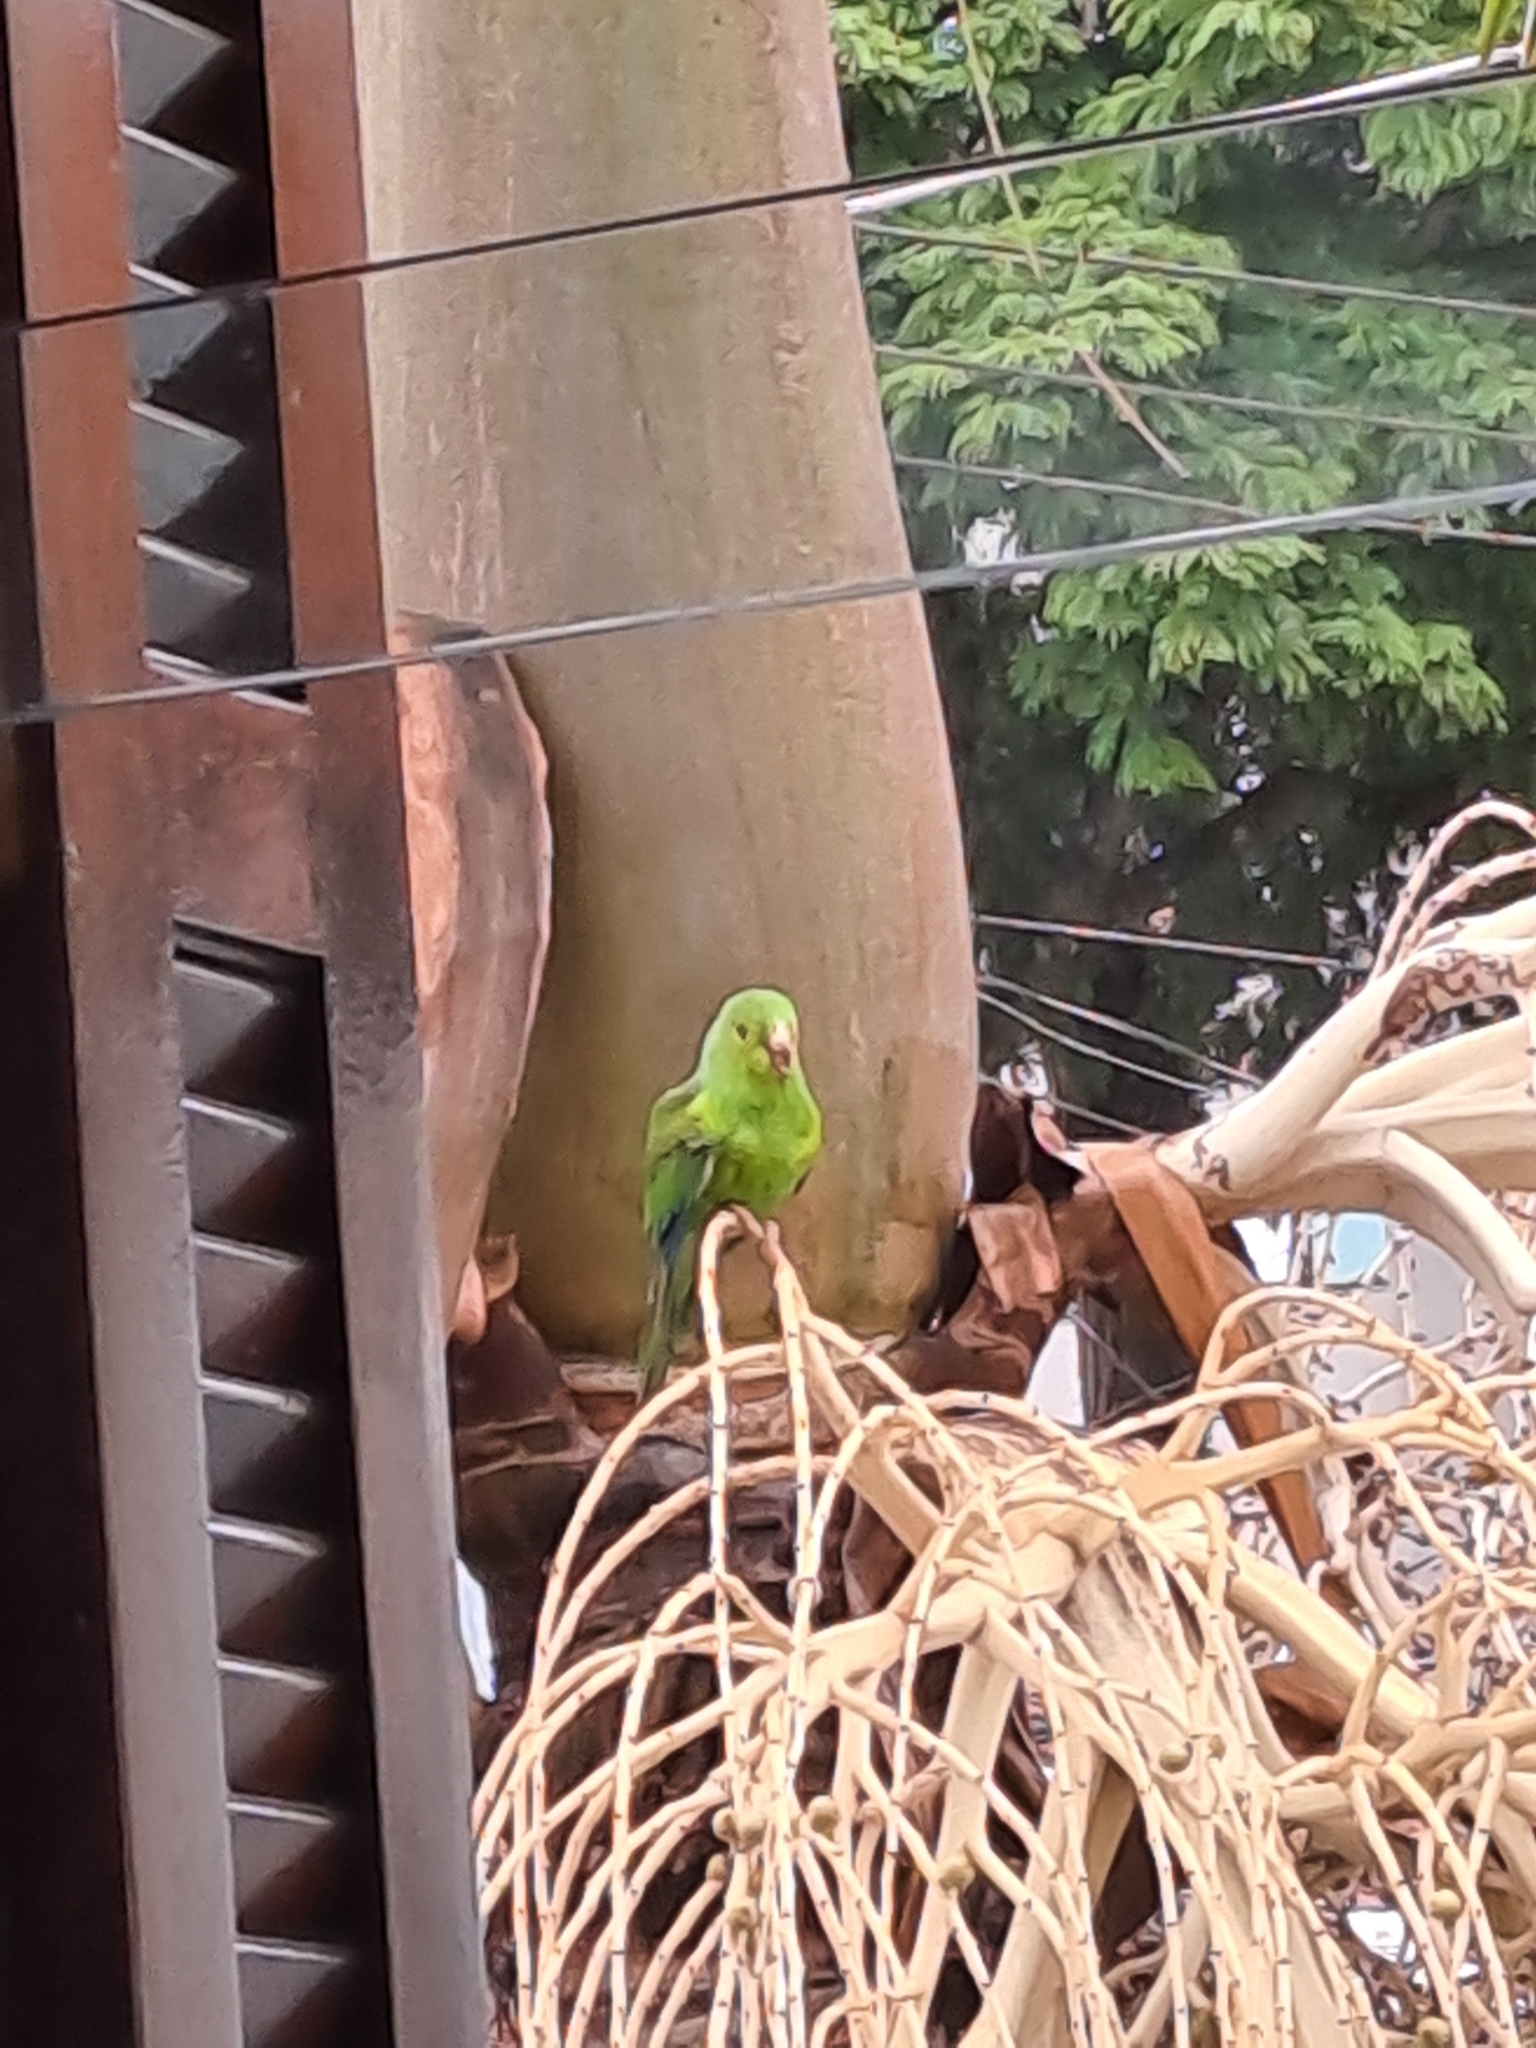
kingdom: Animalia
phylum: Chordata
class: Aves
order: Psittaciformes
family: Psittacidae
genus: Brotogeris
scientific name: Brotogeris tirica
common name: Plain parakeet
